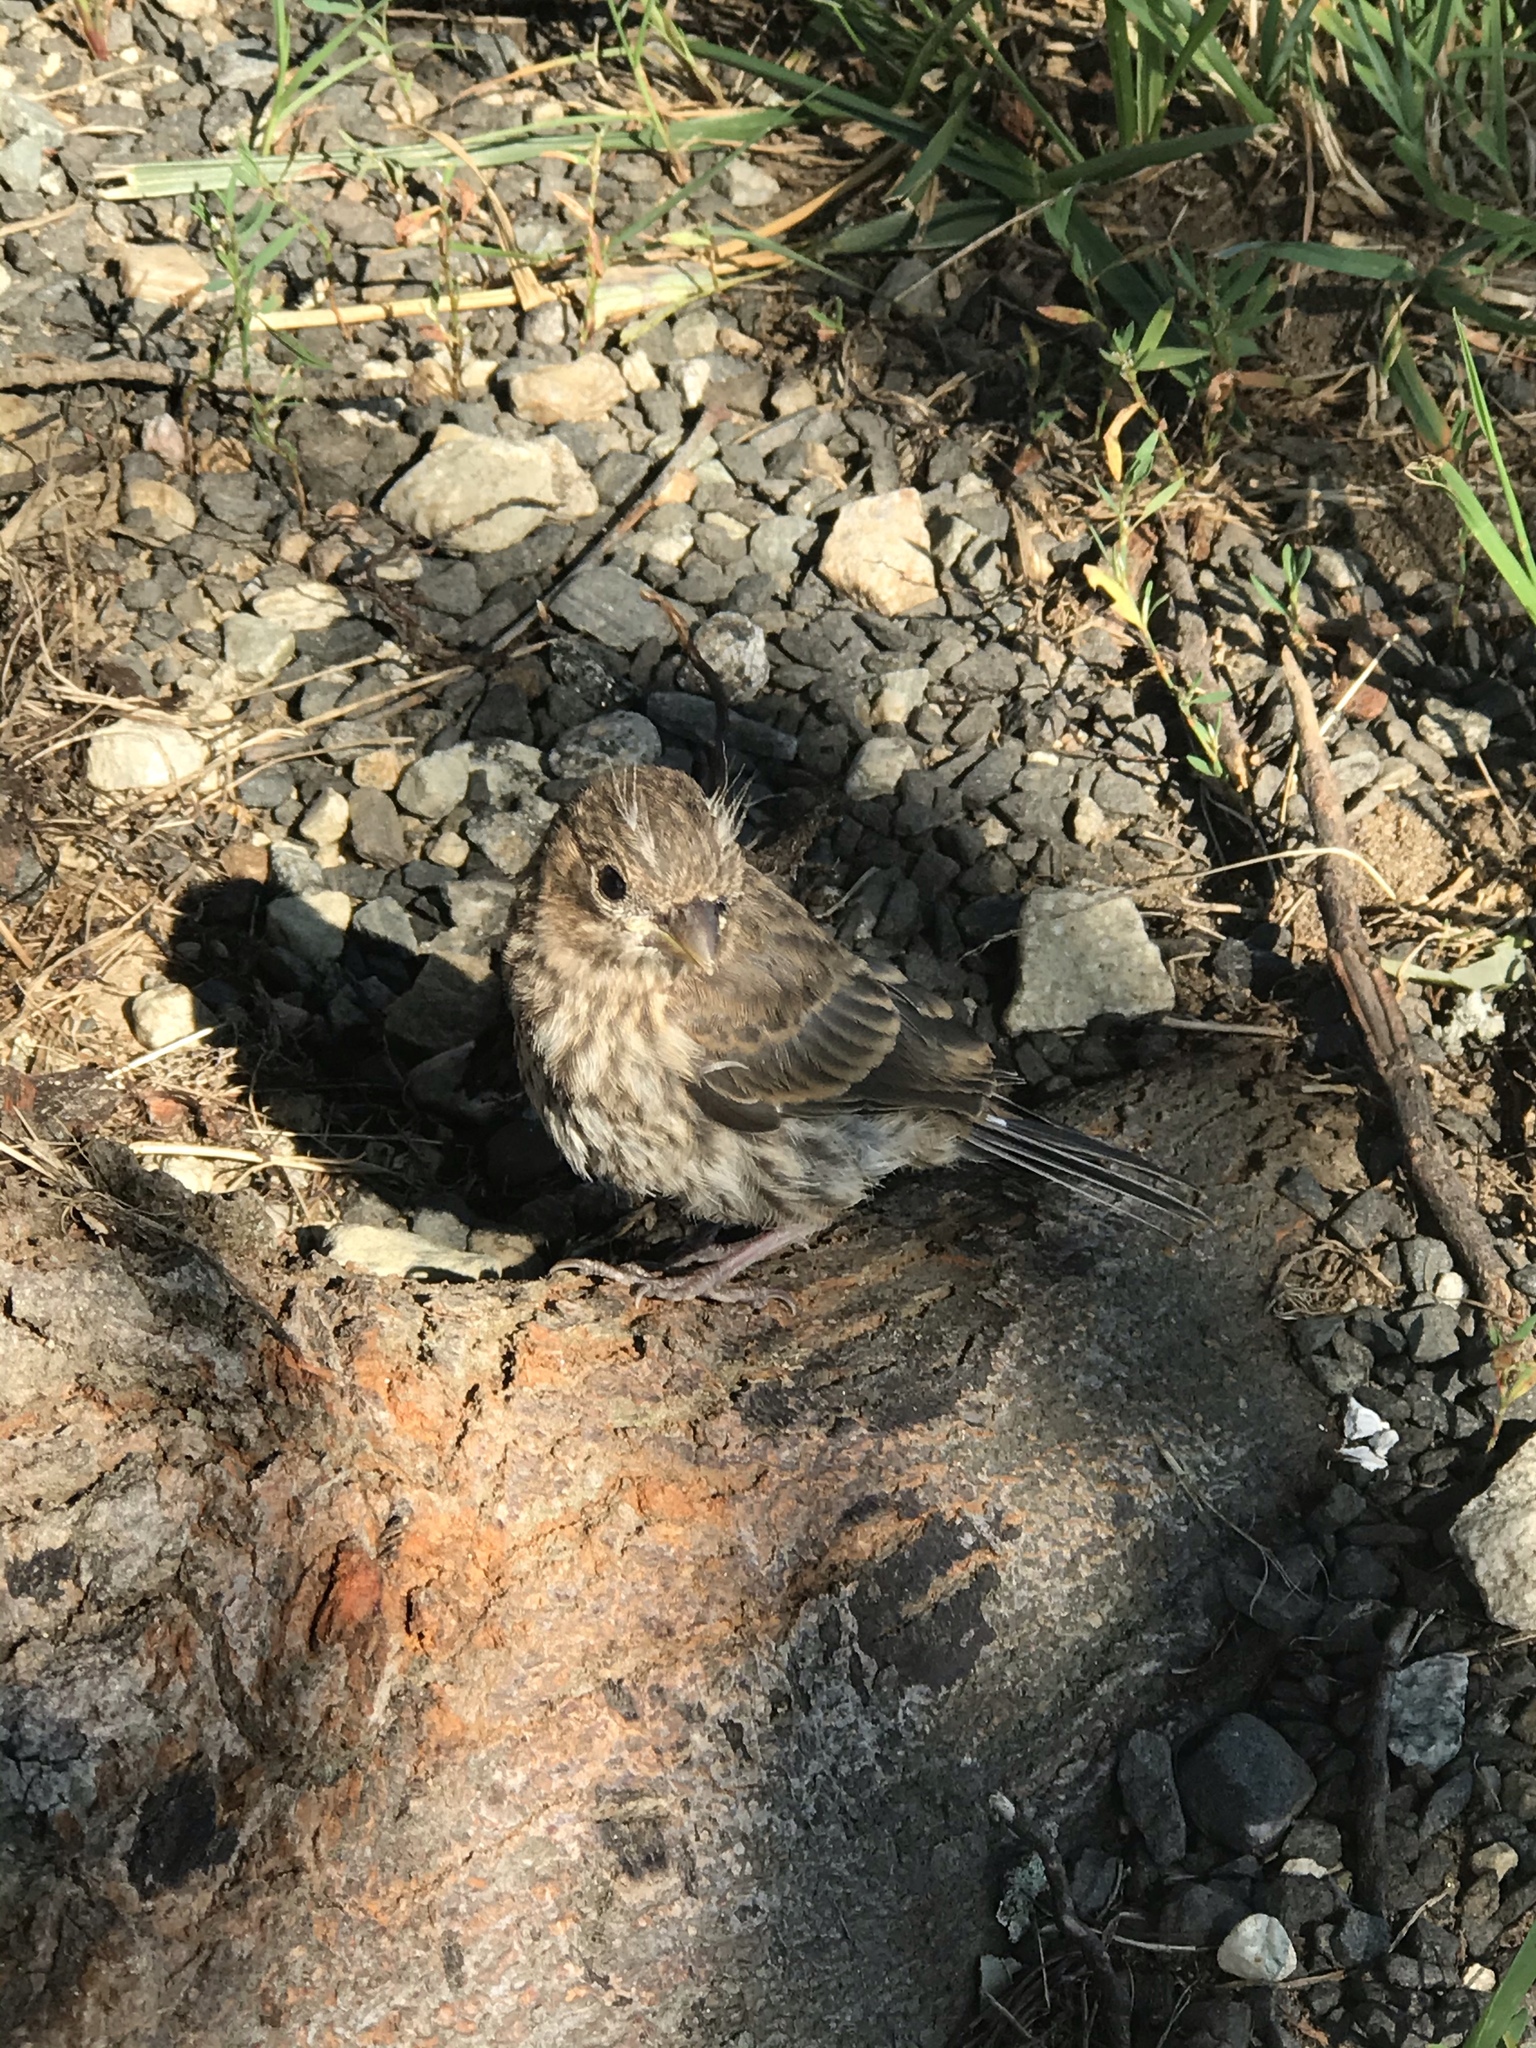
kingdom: Animalia
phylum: Chordata
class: Aves
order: Passeriformes
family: Fringillidae
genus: Haemorhous
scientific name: Haemorhous mexicanus
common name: House finch
